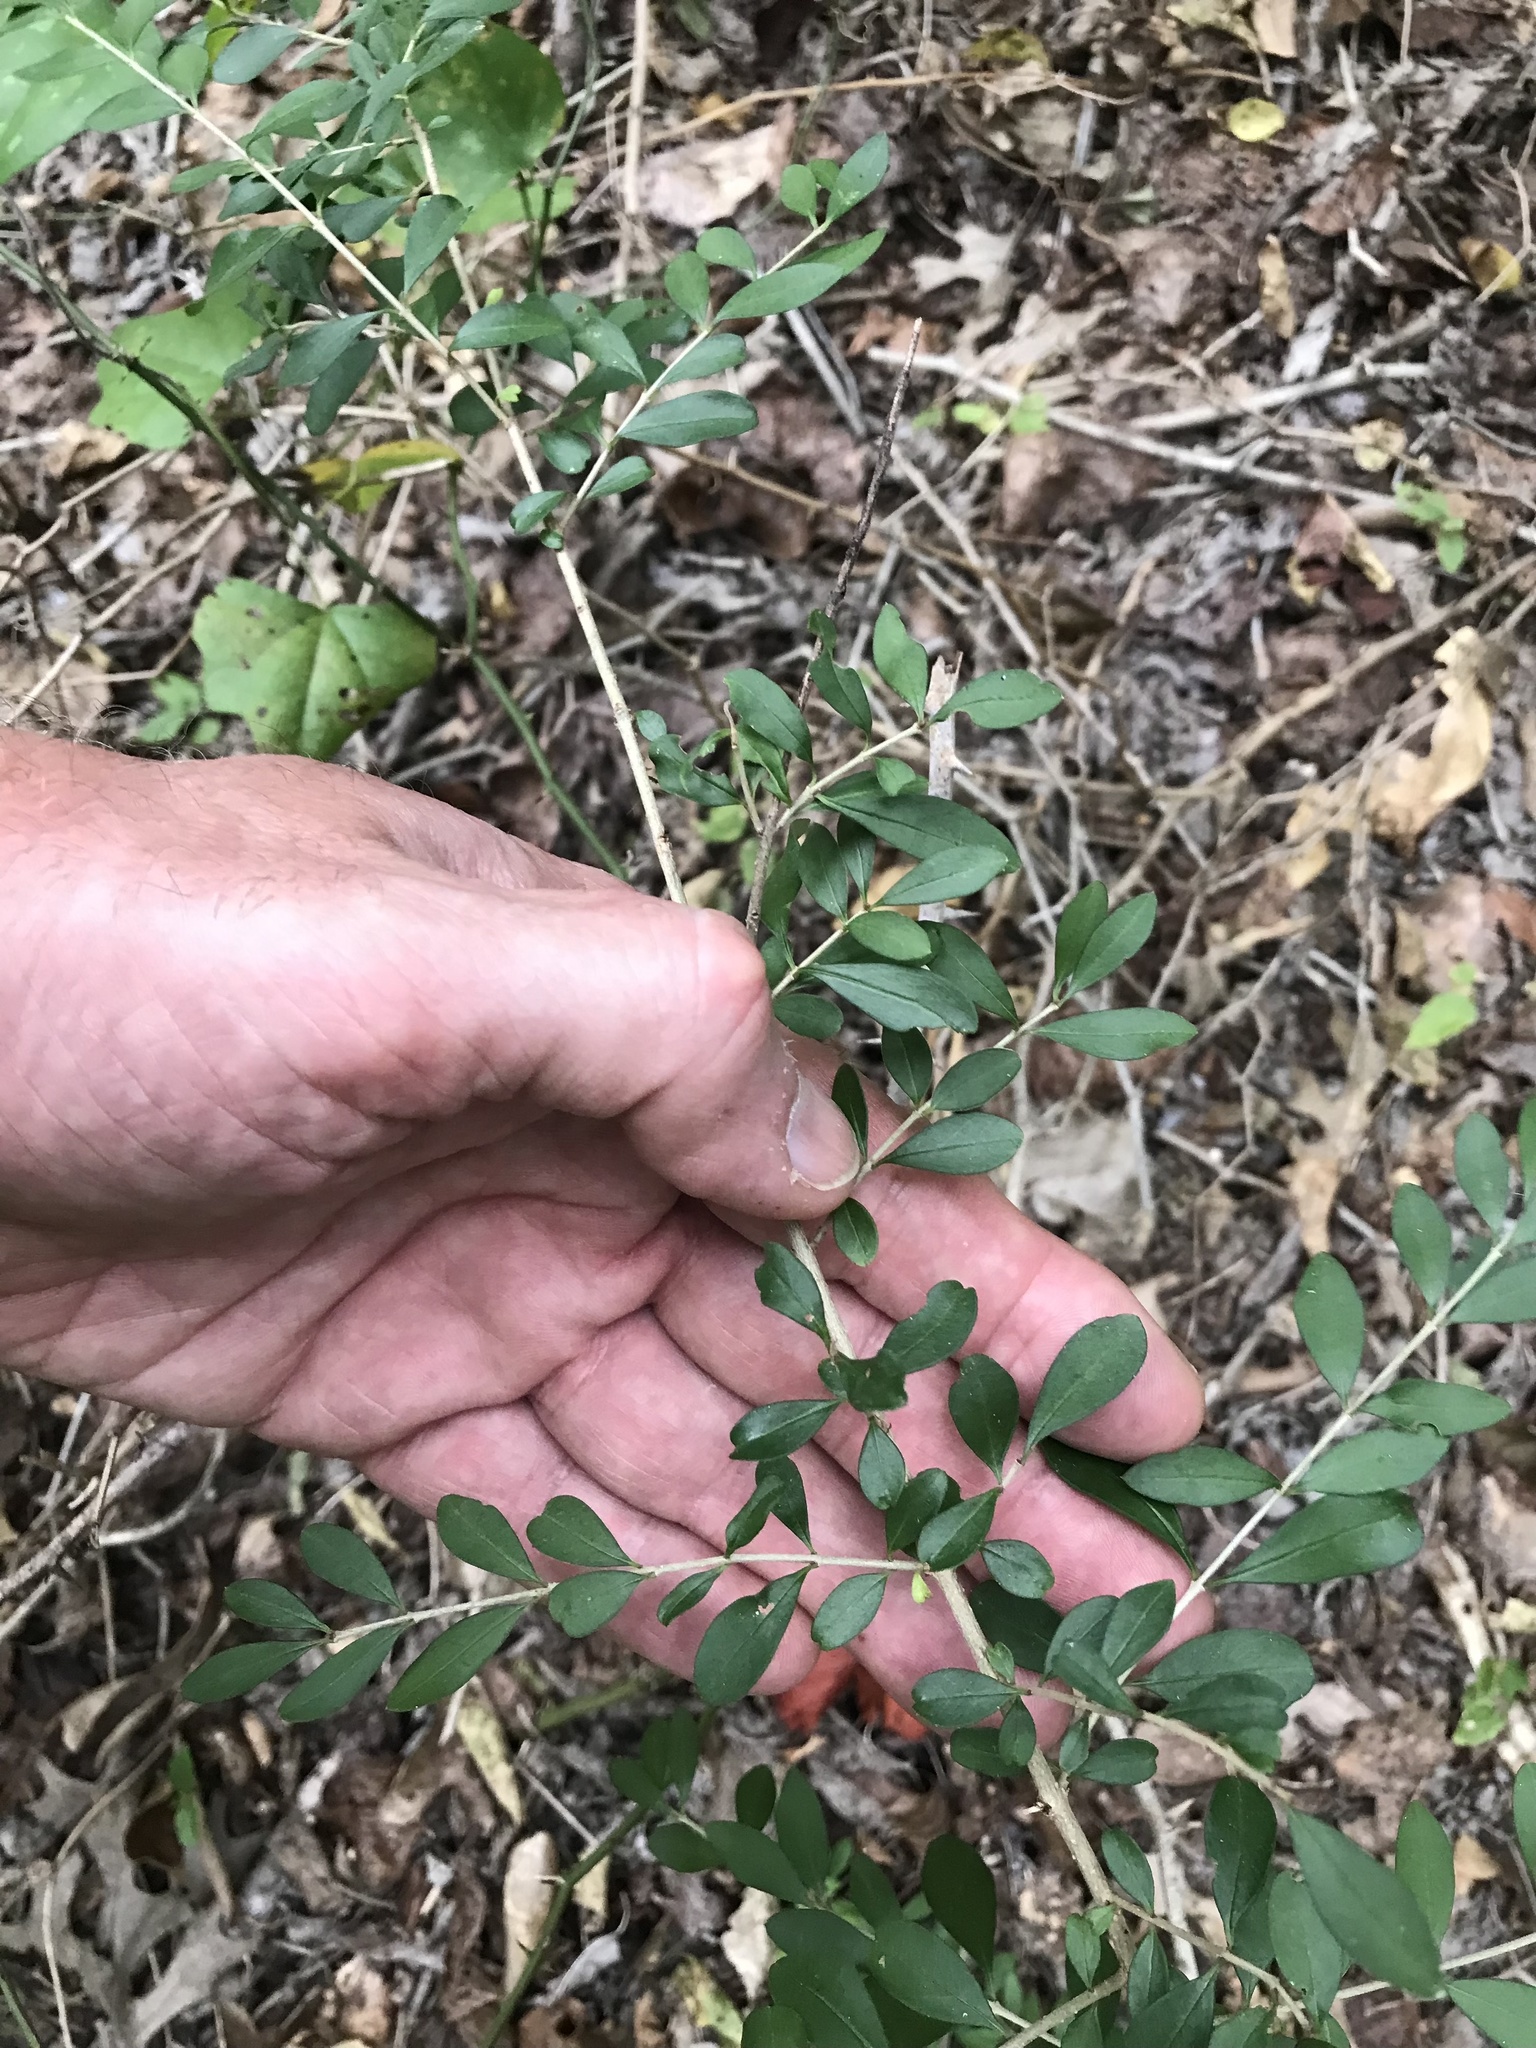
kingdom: Plantae
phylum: Tracheophyta
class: Magnoliopsida
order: Lamiales
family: Oleaceae
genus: Ligustrum
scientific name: Ligustrum quihoui
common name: Waxyleaf privet
